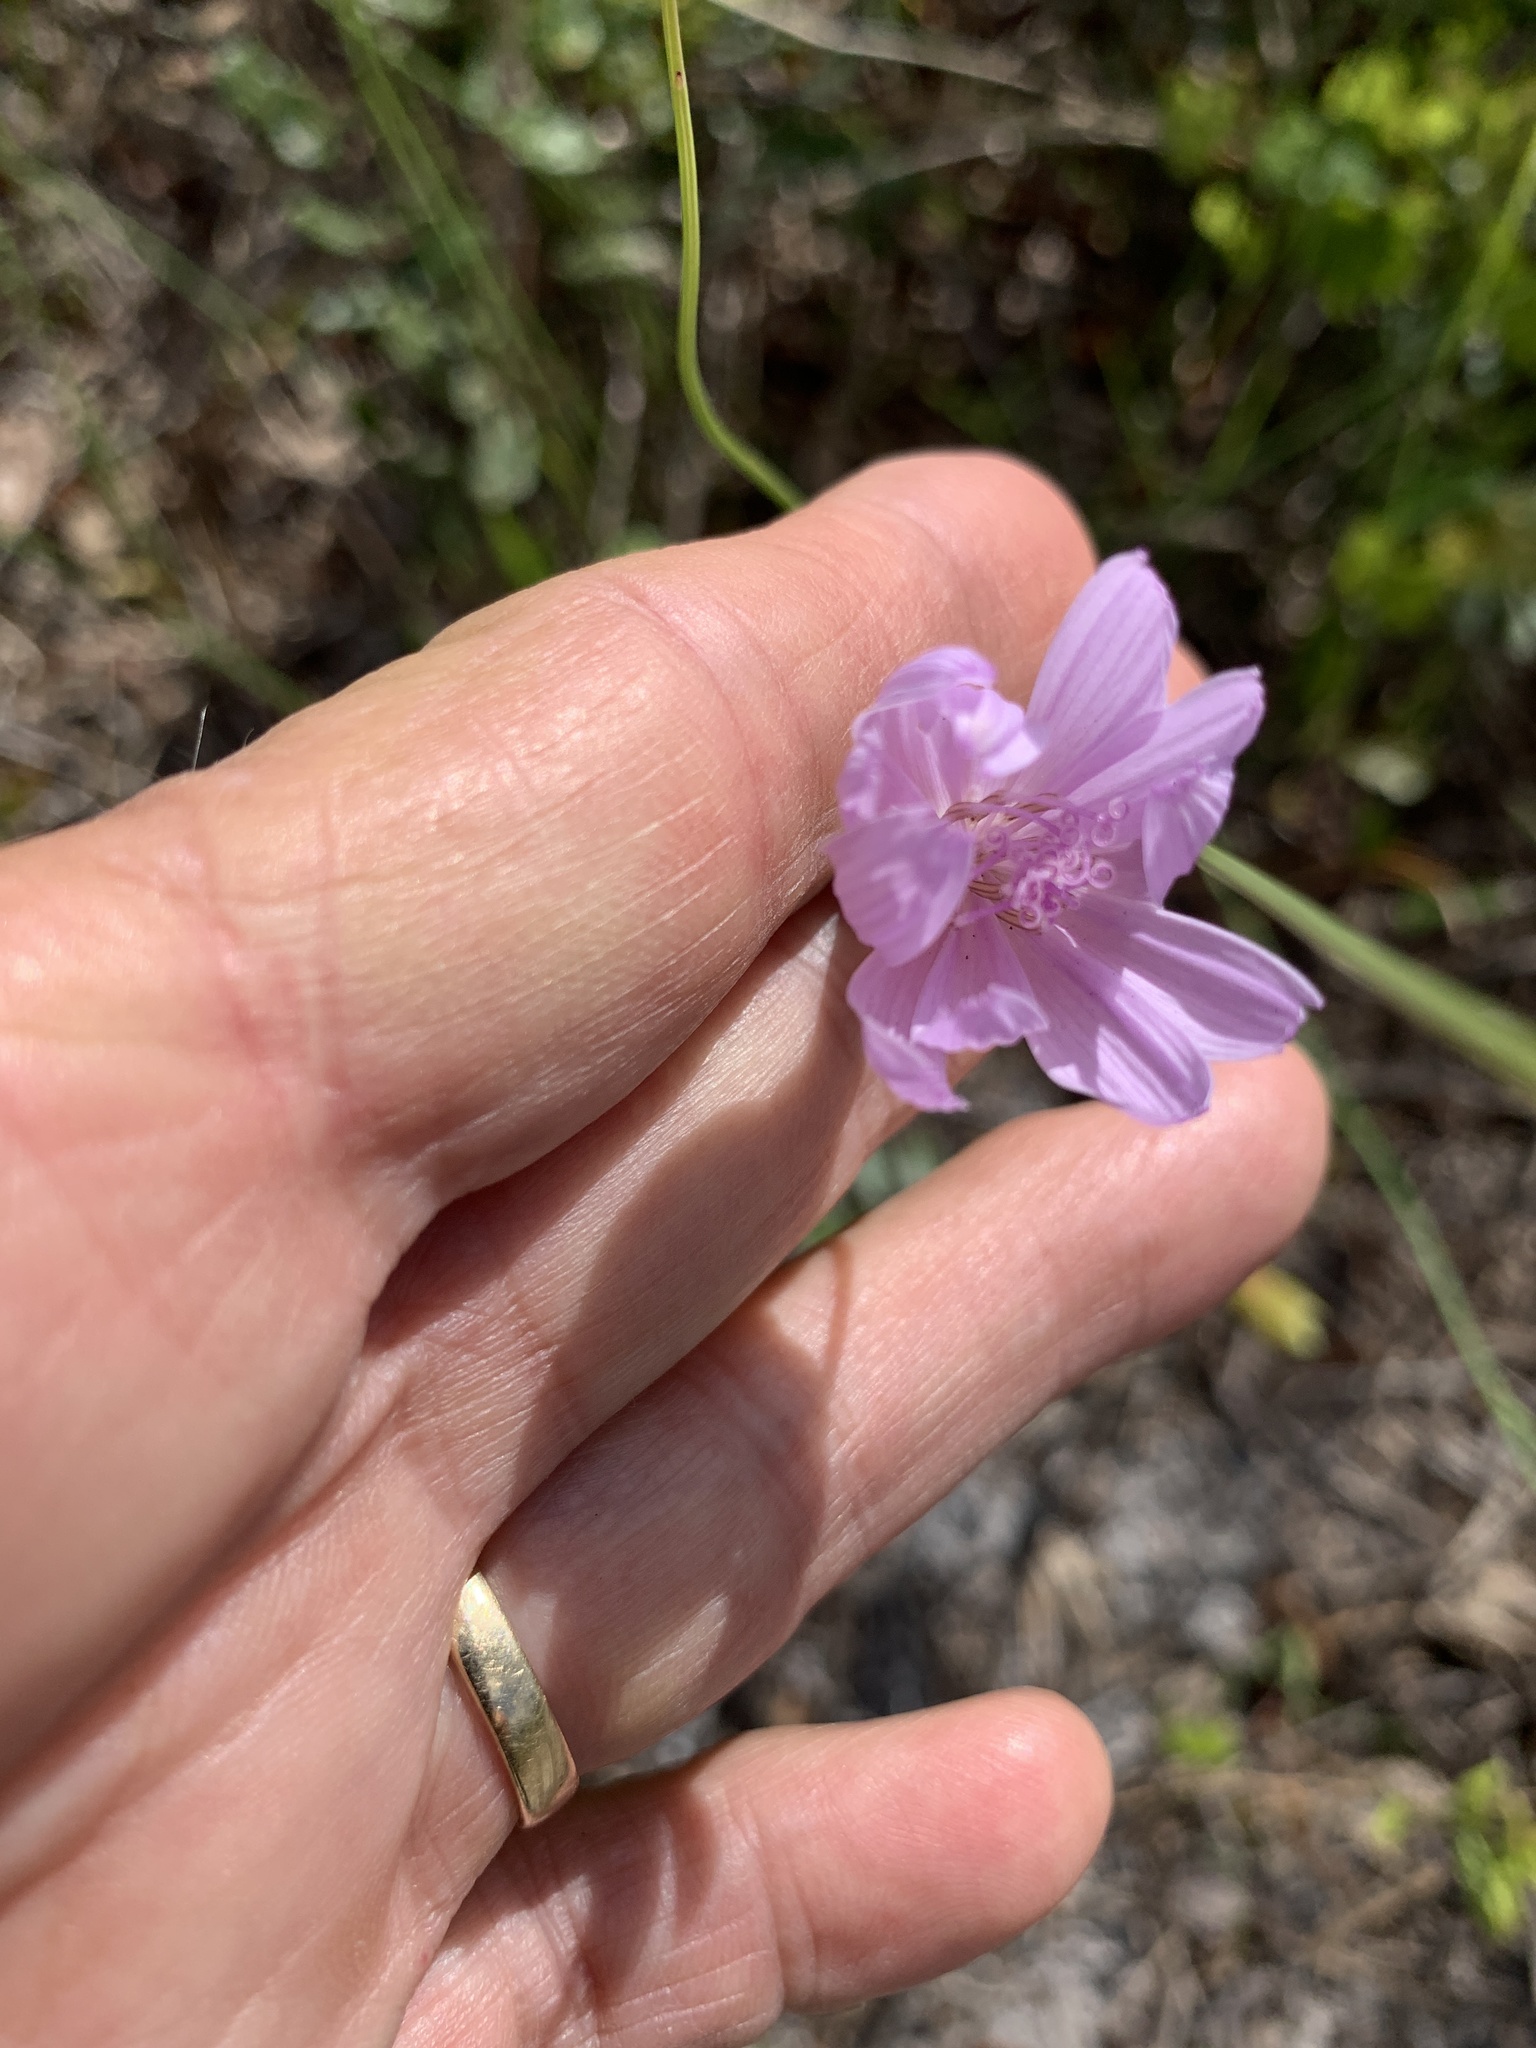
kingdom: Plantae
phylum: Tracheophyta
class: Magnoliopsida
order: Asterales
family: Asteraceae
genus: Lygodesmia
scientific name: Lygodesmia aphylla
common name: Rose-rush
